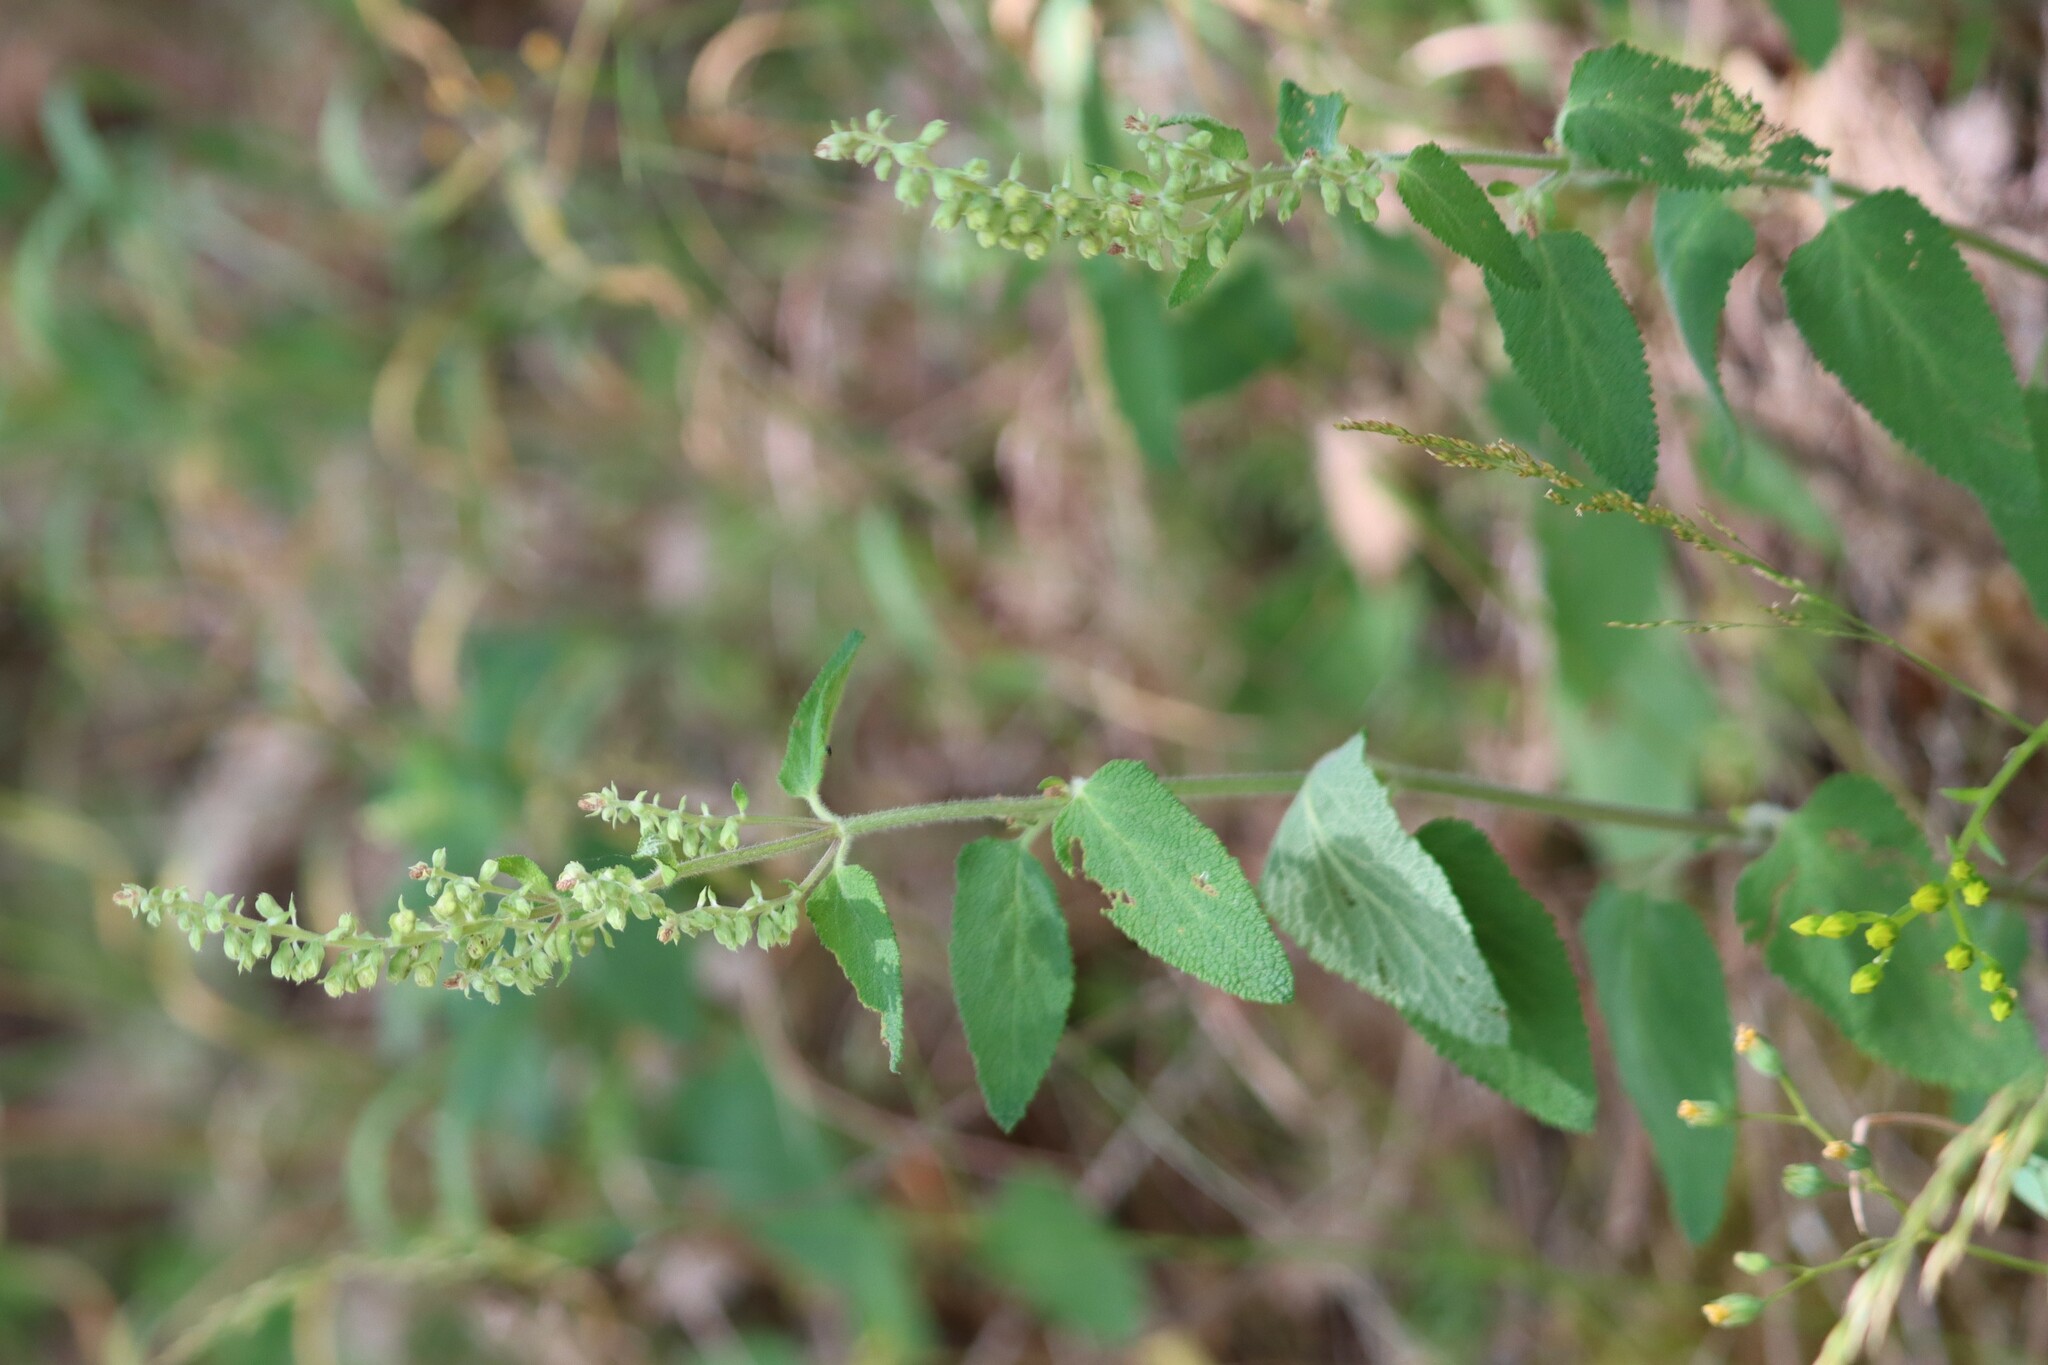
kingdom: Plantae
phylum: Tracheophyta
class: Magnoliopsida
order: Lamiales
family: Lamiaceae
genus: Teucrium
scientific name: Teucrium scorodonia
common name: Woodland germander
